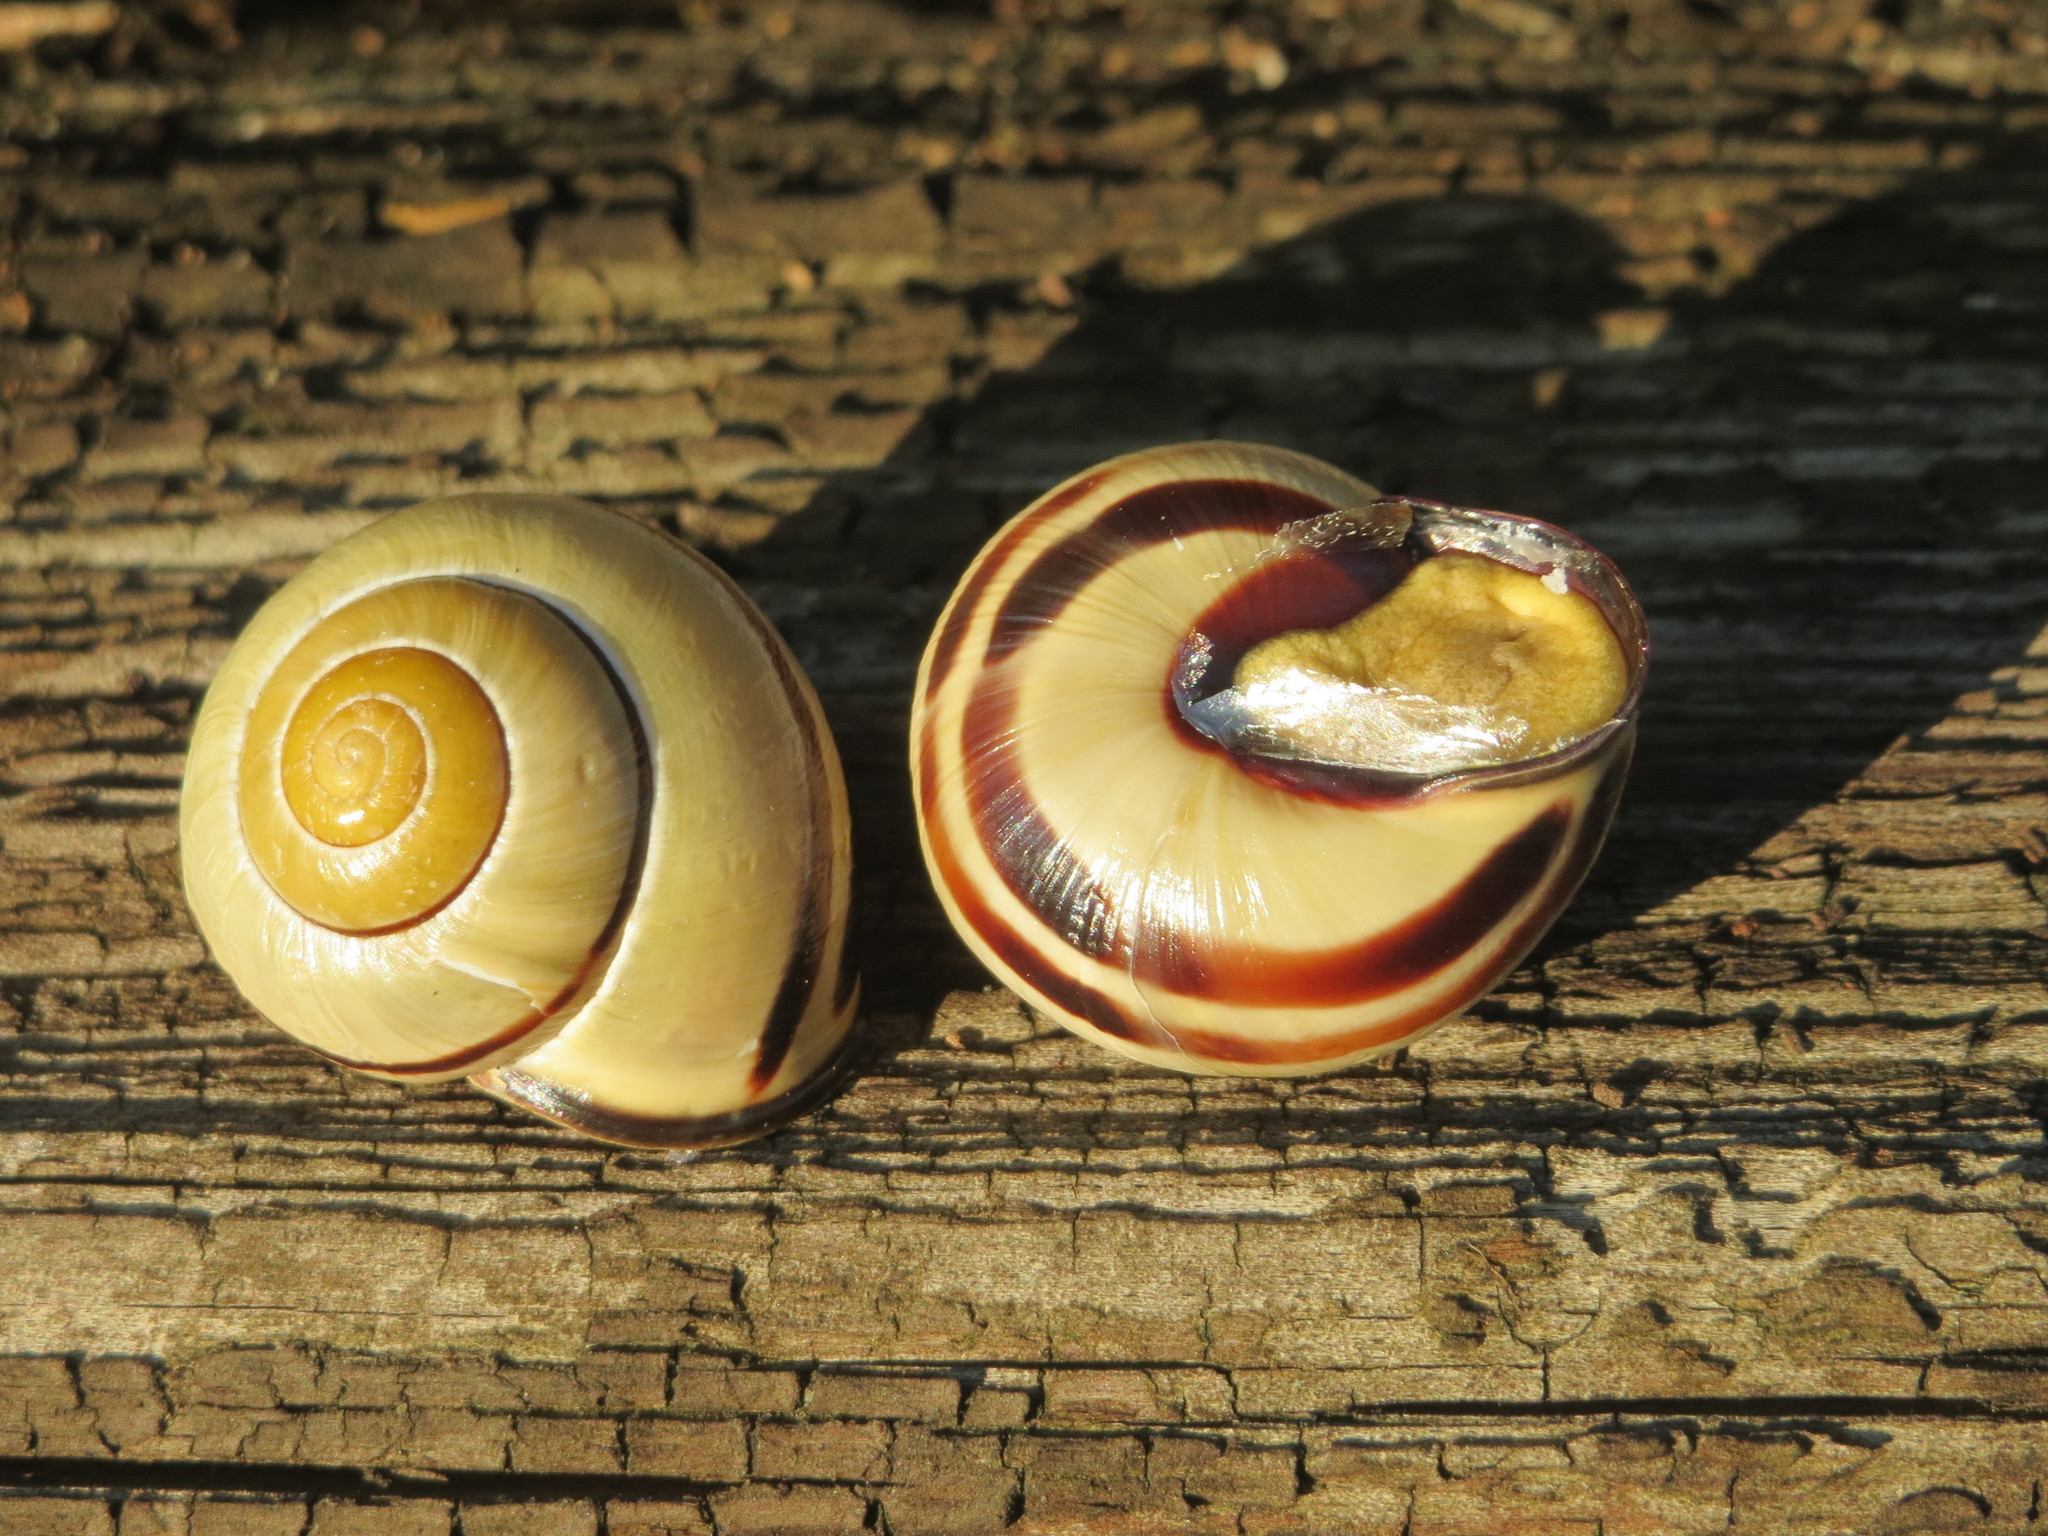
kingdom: Animalia
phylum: Mollusca
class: Gastropoda
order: Stylommatophora
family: Helicidae
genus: Cepaea
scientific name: Cepaea nemoralis
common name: Grovesnail
